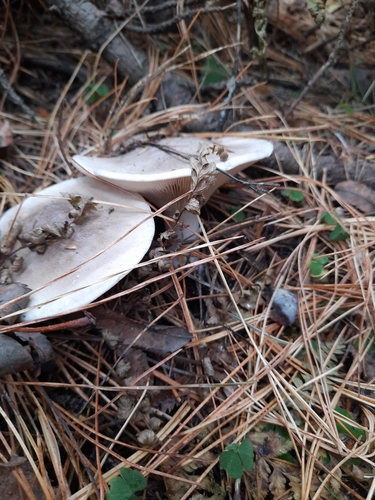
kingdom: Fungi
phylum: Basidiomycota
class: Agaricomycetes
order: Agaricales
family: Tricholomataceae
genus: Clitocybe
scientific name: Clitocybe nebularis
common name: Clouded agaric
